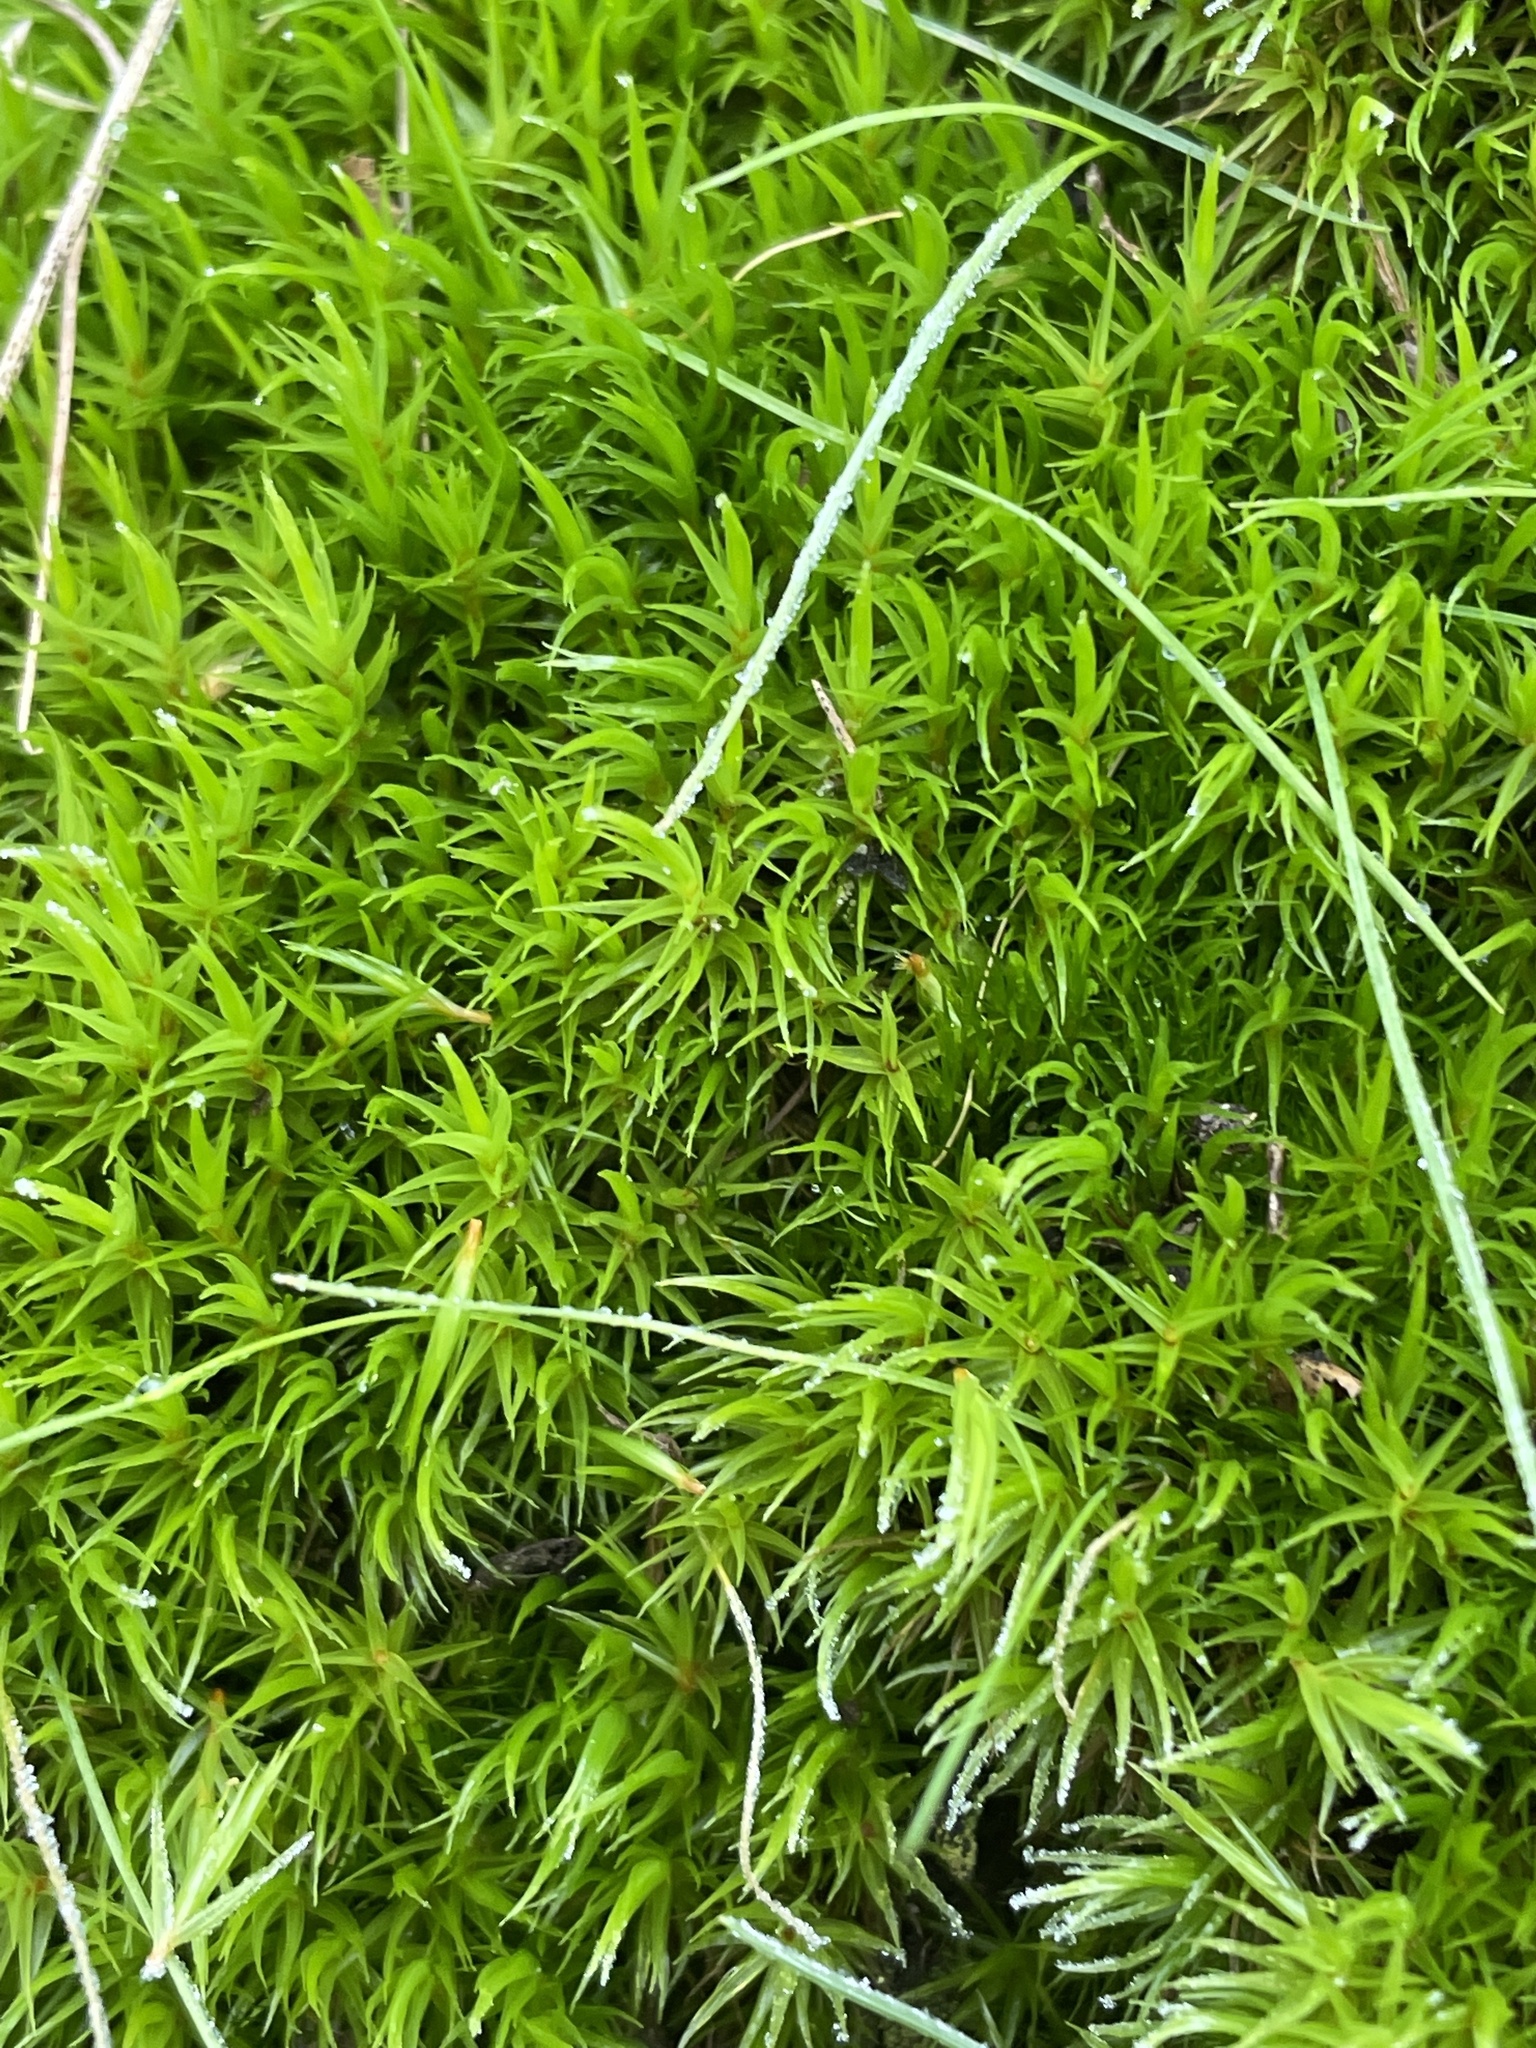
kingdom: Plantae
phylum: Bryophyta
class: Bryopsida
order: Dicranales
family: Dicranaceae
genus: Dicranum
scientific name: Dicranum scoparium
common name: Broom fork-moss
